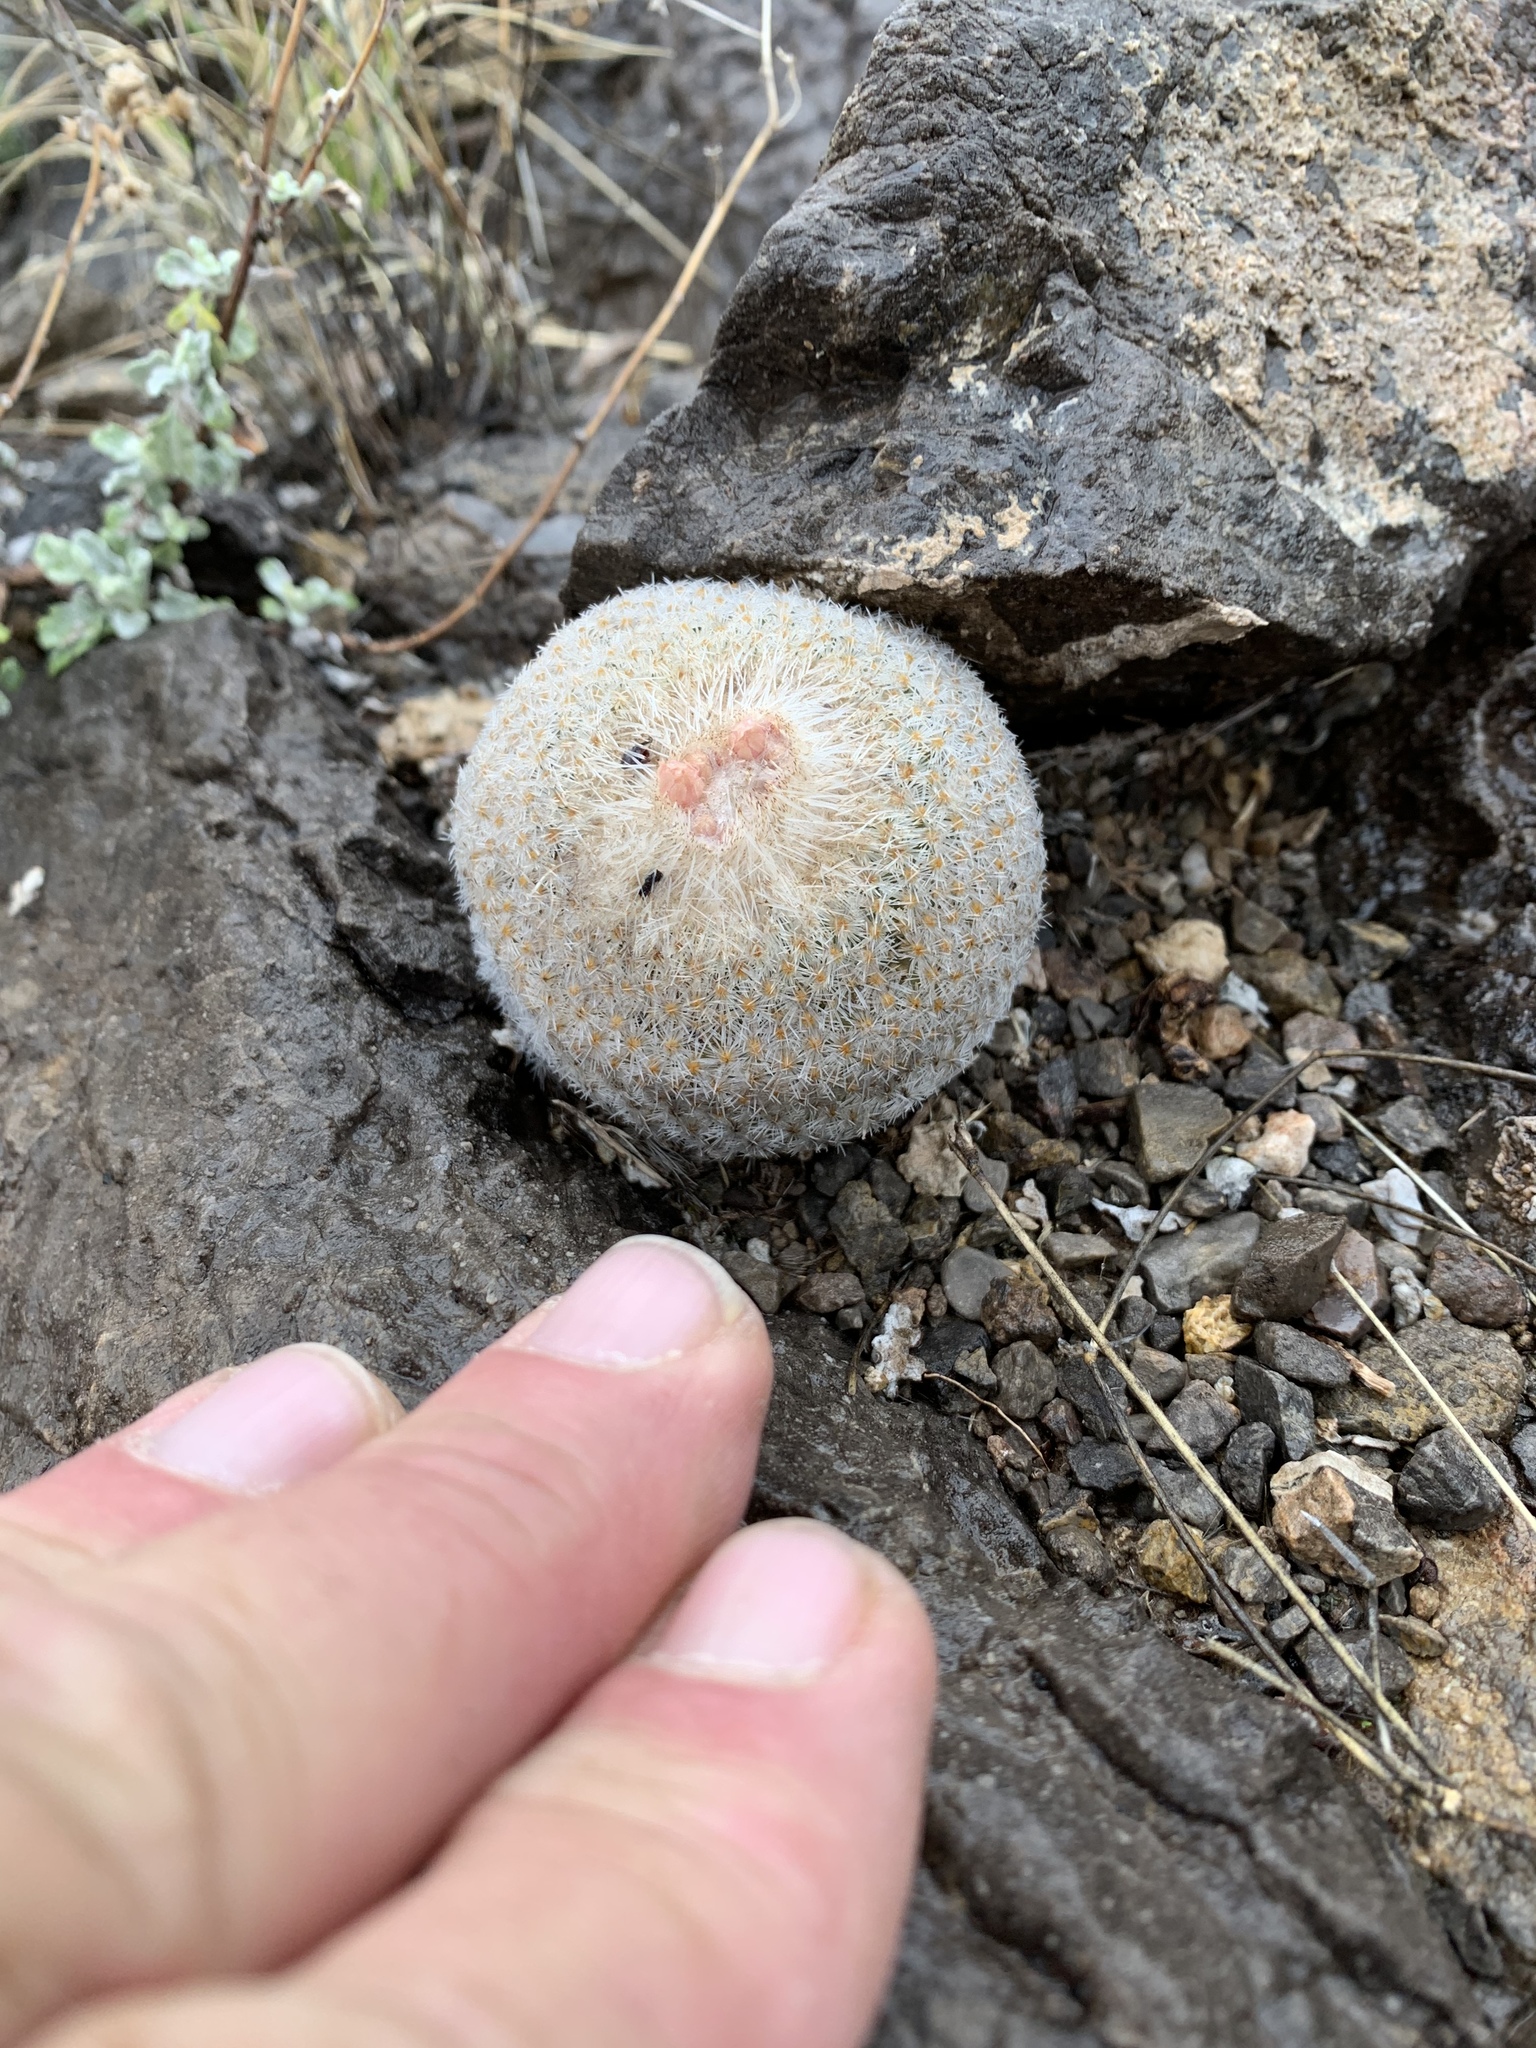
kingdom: Plantae
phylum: Tracheophyta
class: Magnoliopsida
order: Caryophyllales
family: Cactaceae
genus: Epithelantha
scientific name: Epithelantha micromeris
